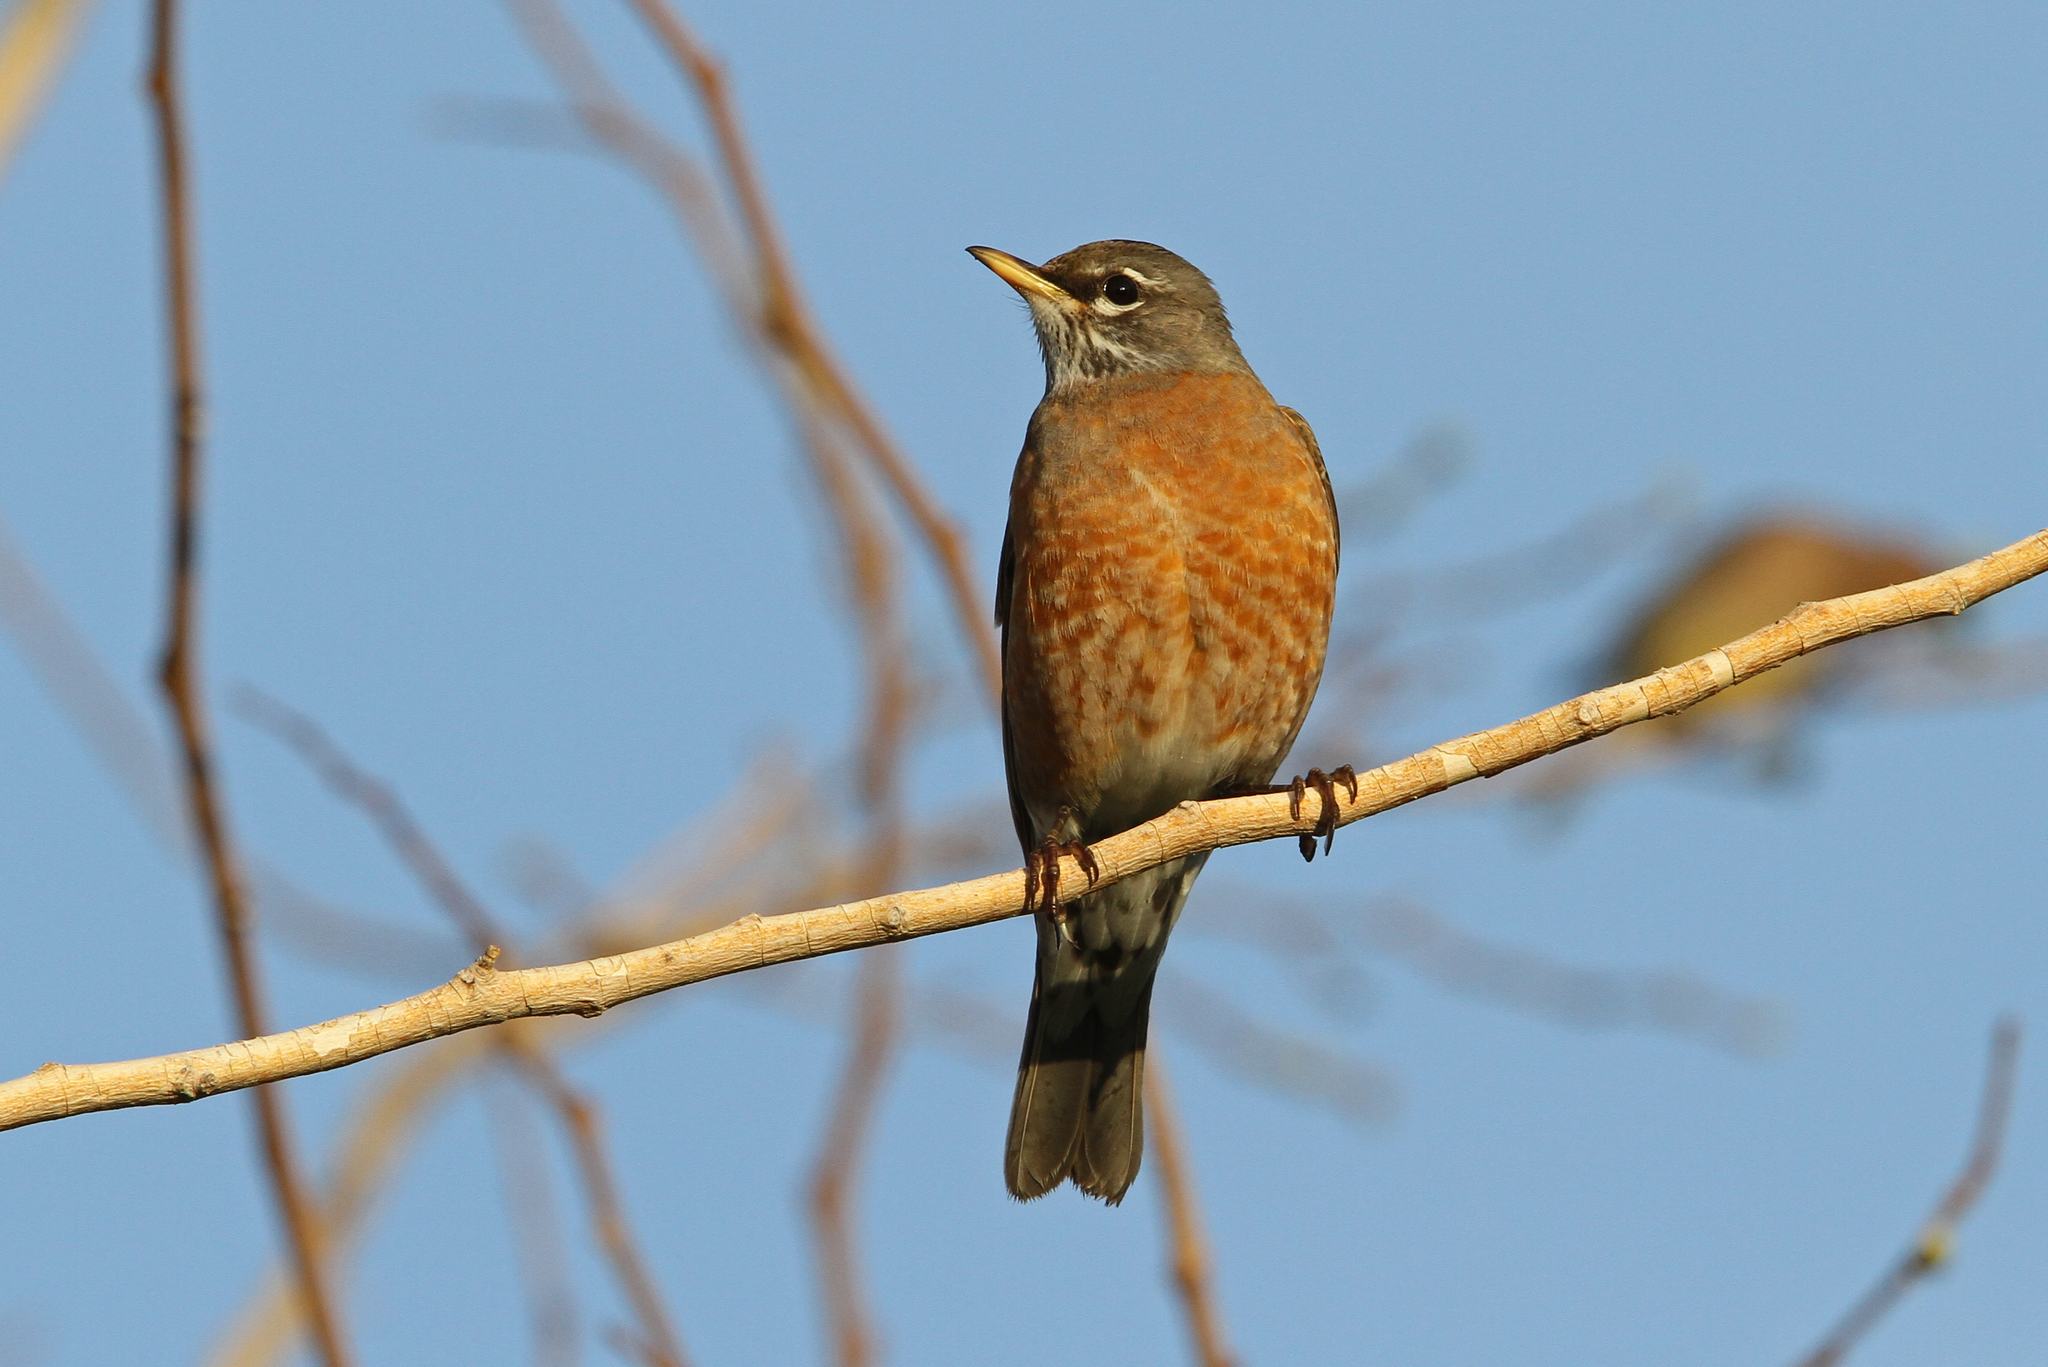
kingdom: Animalia
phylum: Chordata
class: Aves
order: Passeriformes
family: Turdidae
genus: Turdus
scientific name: Turdus migratorius
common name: American robin
